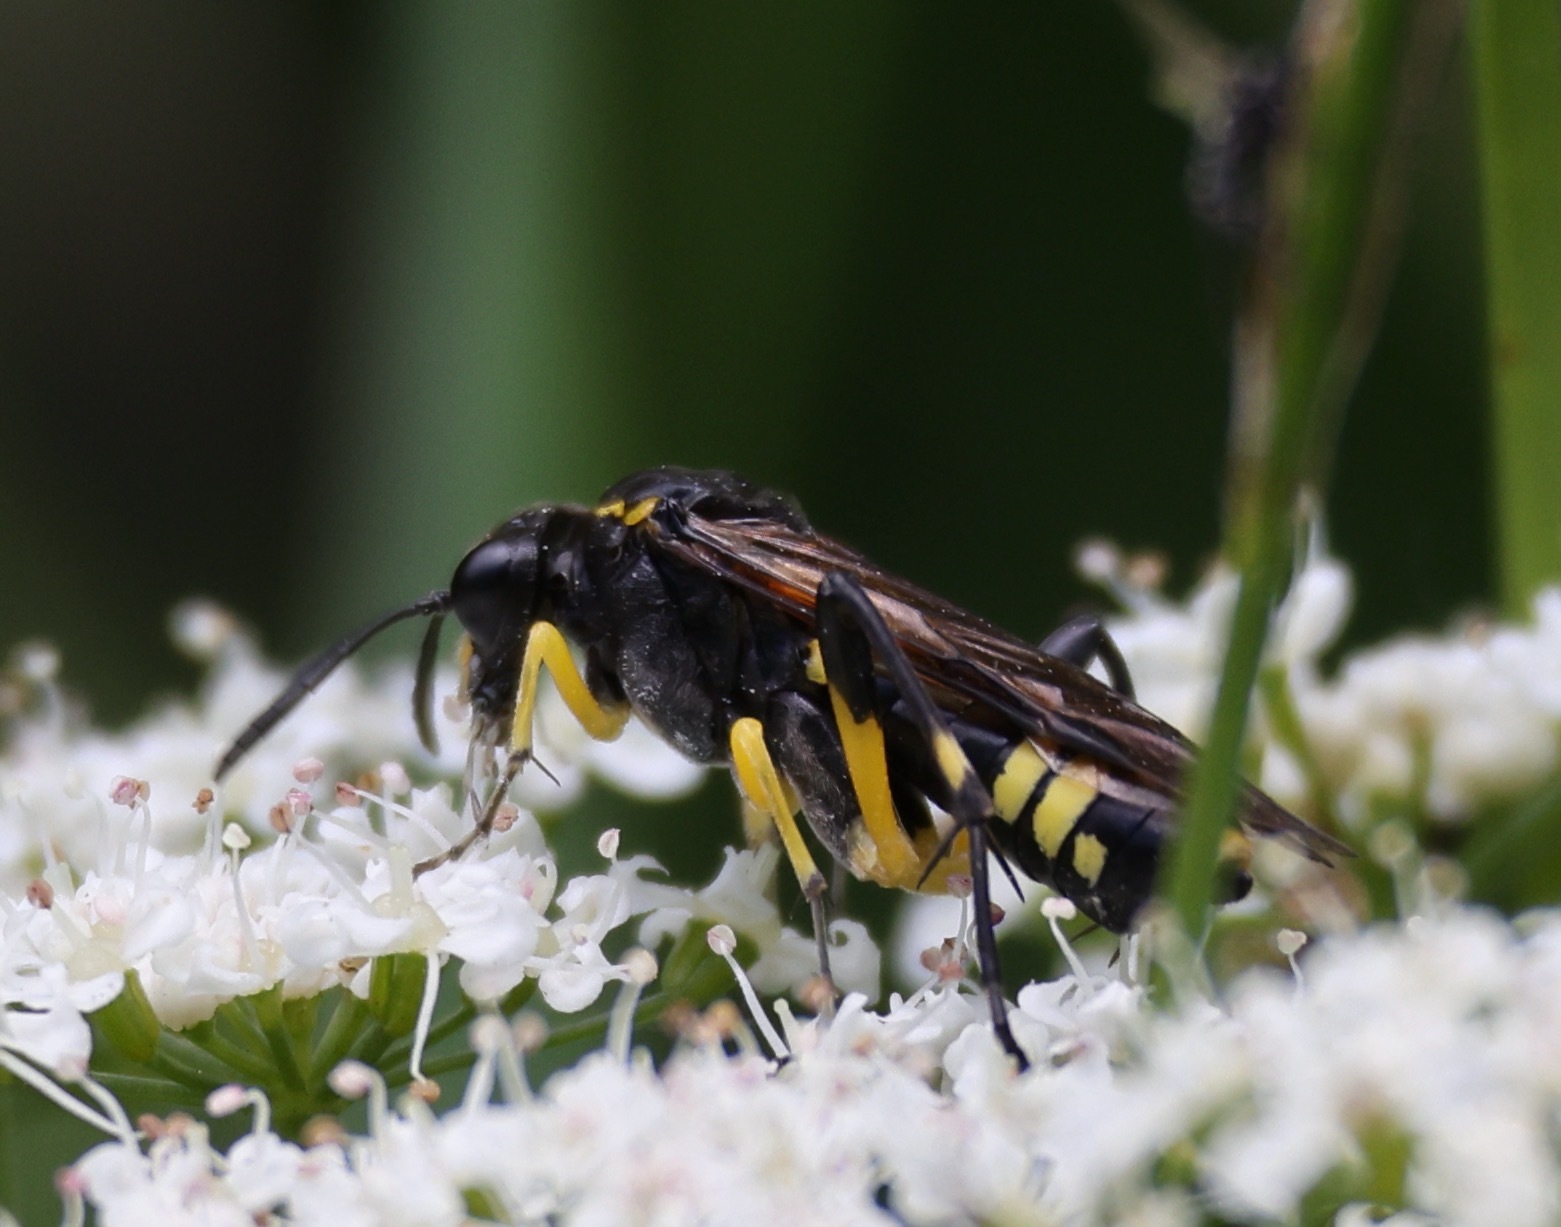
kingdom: Animalia
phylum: Arthropoda
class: Insecta
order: Hymenoptera
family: Tenthredinidae
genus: Macrophya
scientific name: Macrophya montana
